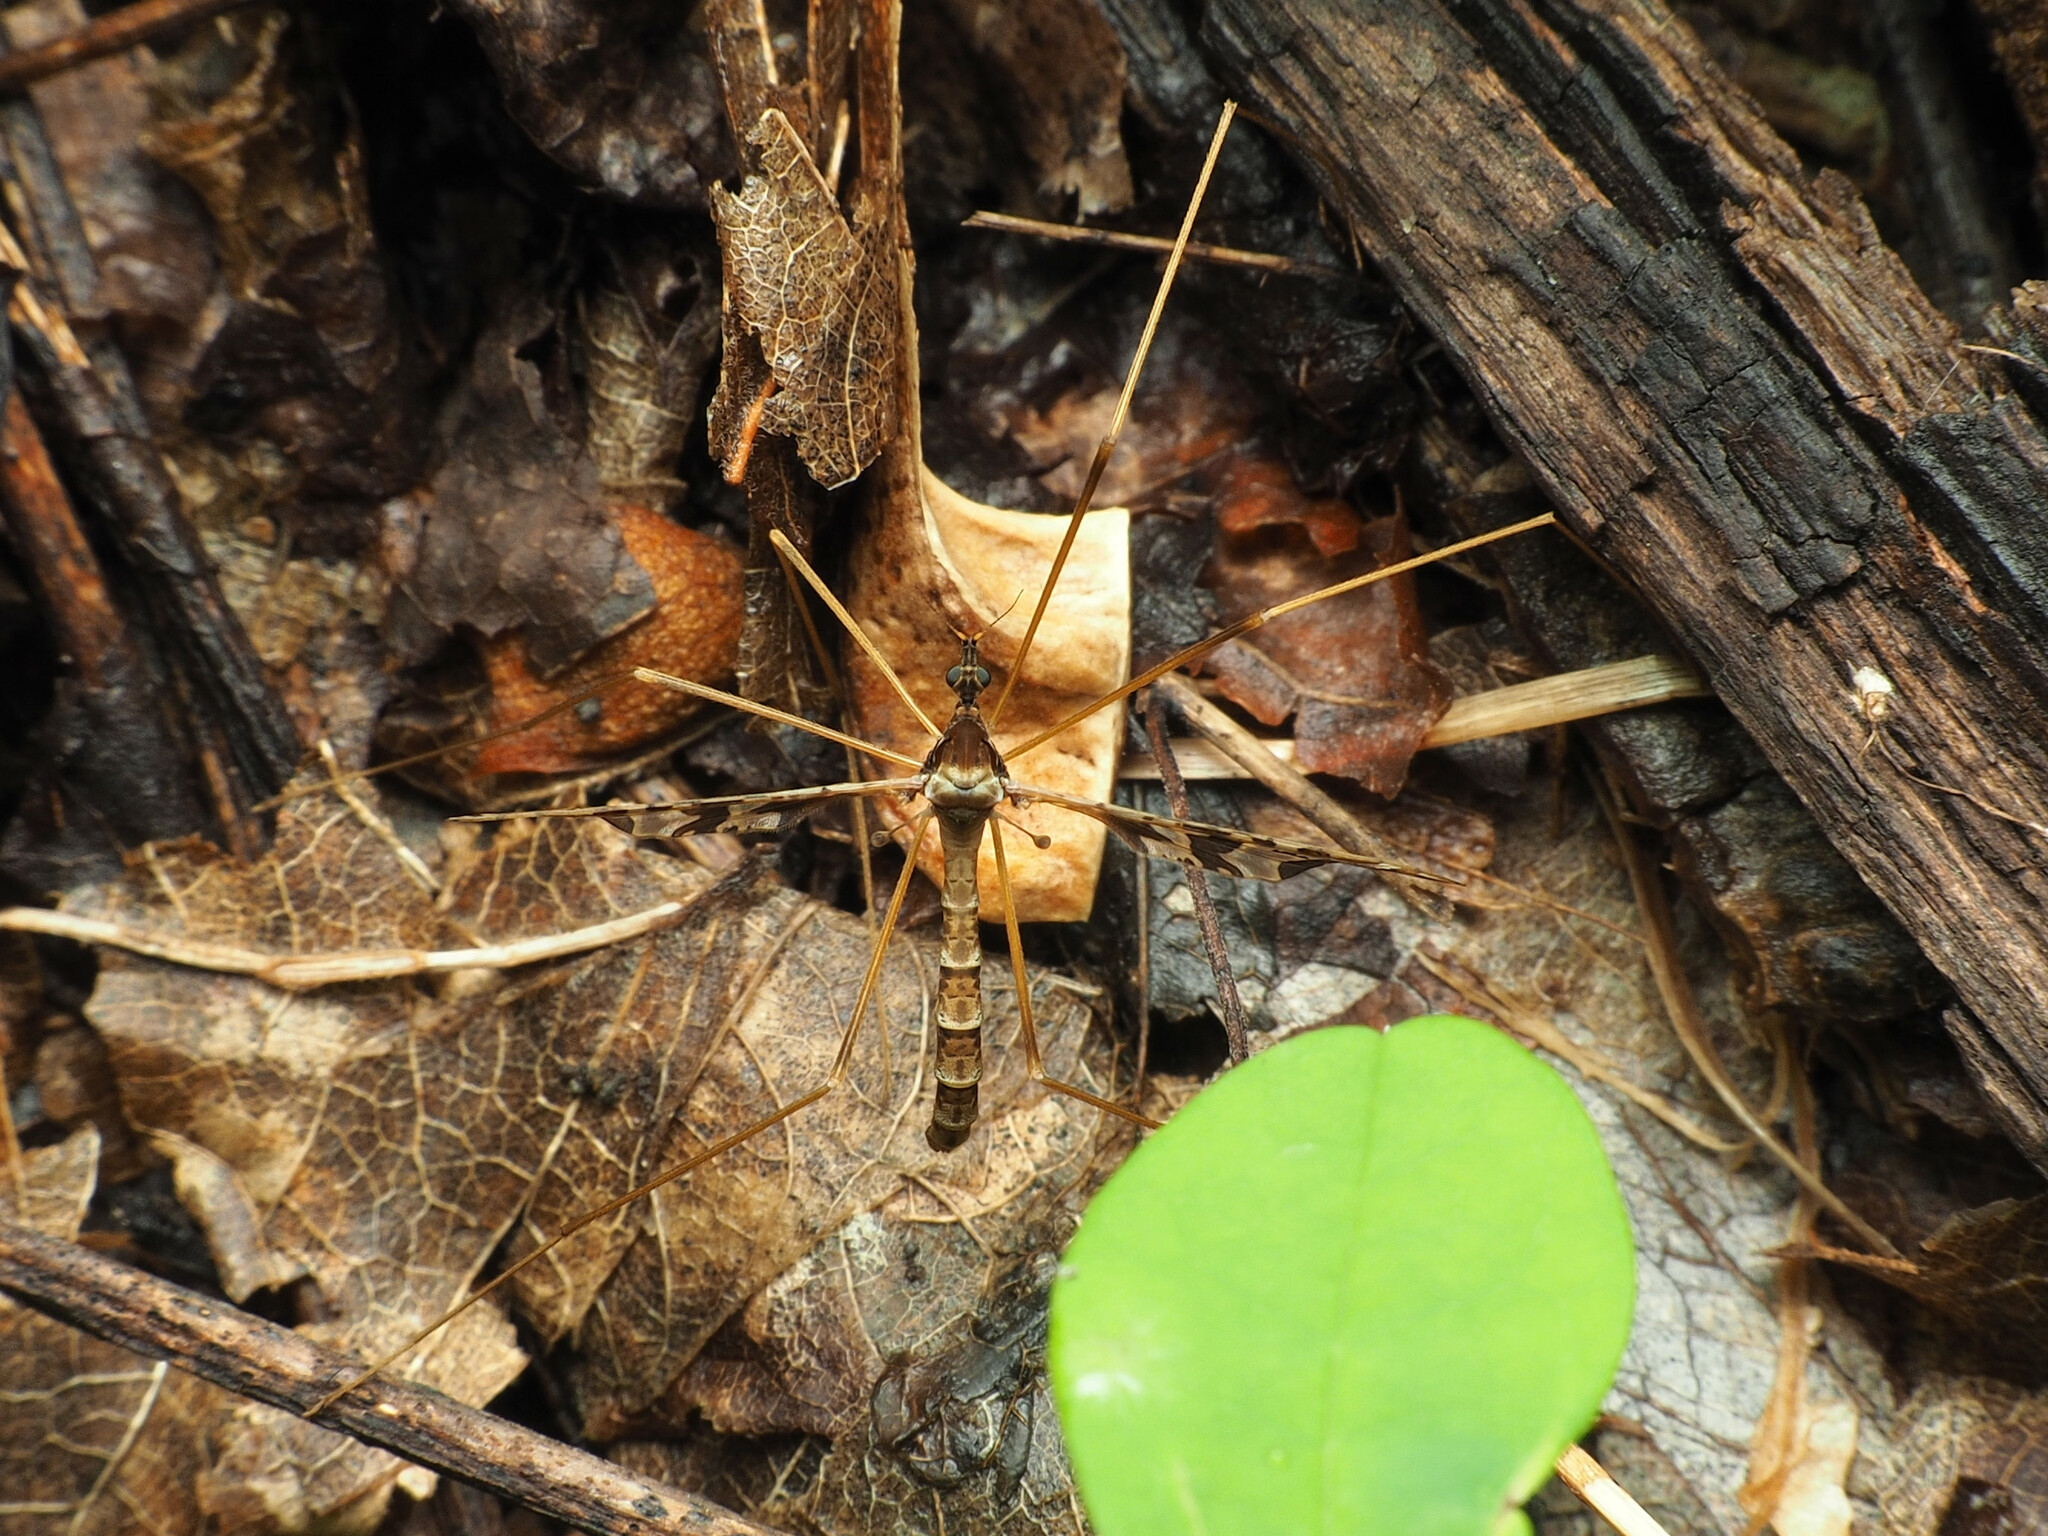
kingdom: Animalia
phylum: Arthropoda
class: Insecta
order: Diptera
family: Limoniidae
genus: Epiphragma
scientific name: Epiphragma solatrix
